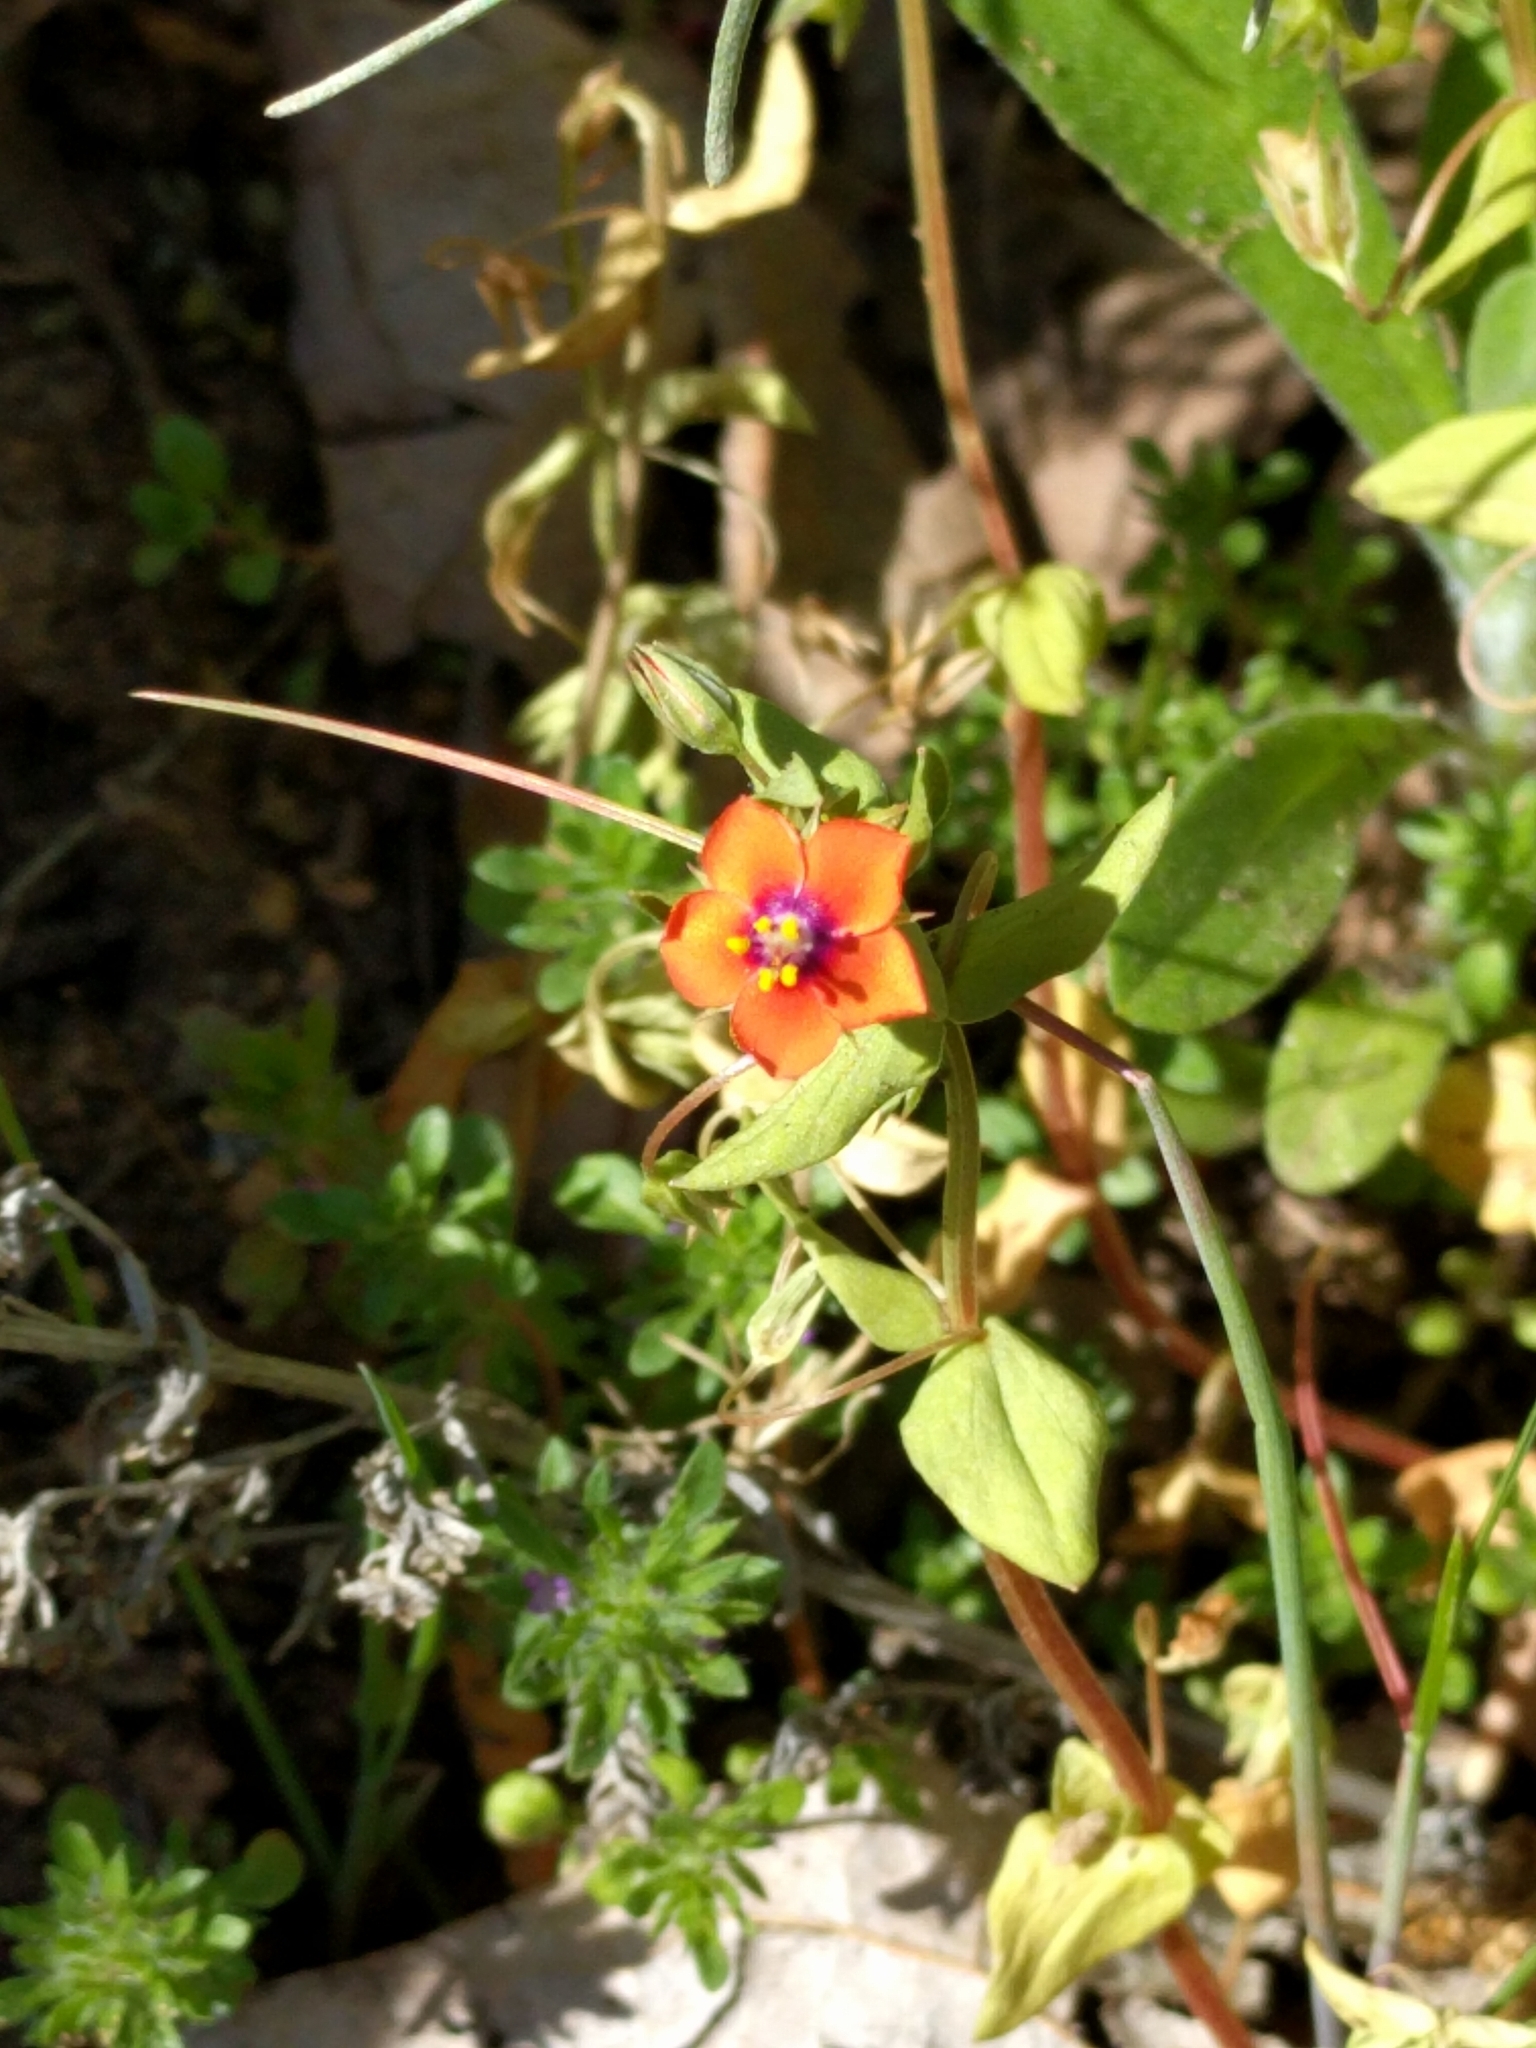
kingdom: Plantae
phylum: Tracheophyta
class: Magnoliopsida
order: Ericales
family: Primulaceae
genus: Lysimachia
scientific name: Lysimachia arvensis
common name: Scarlet pimpernel
